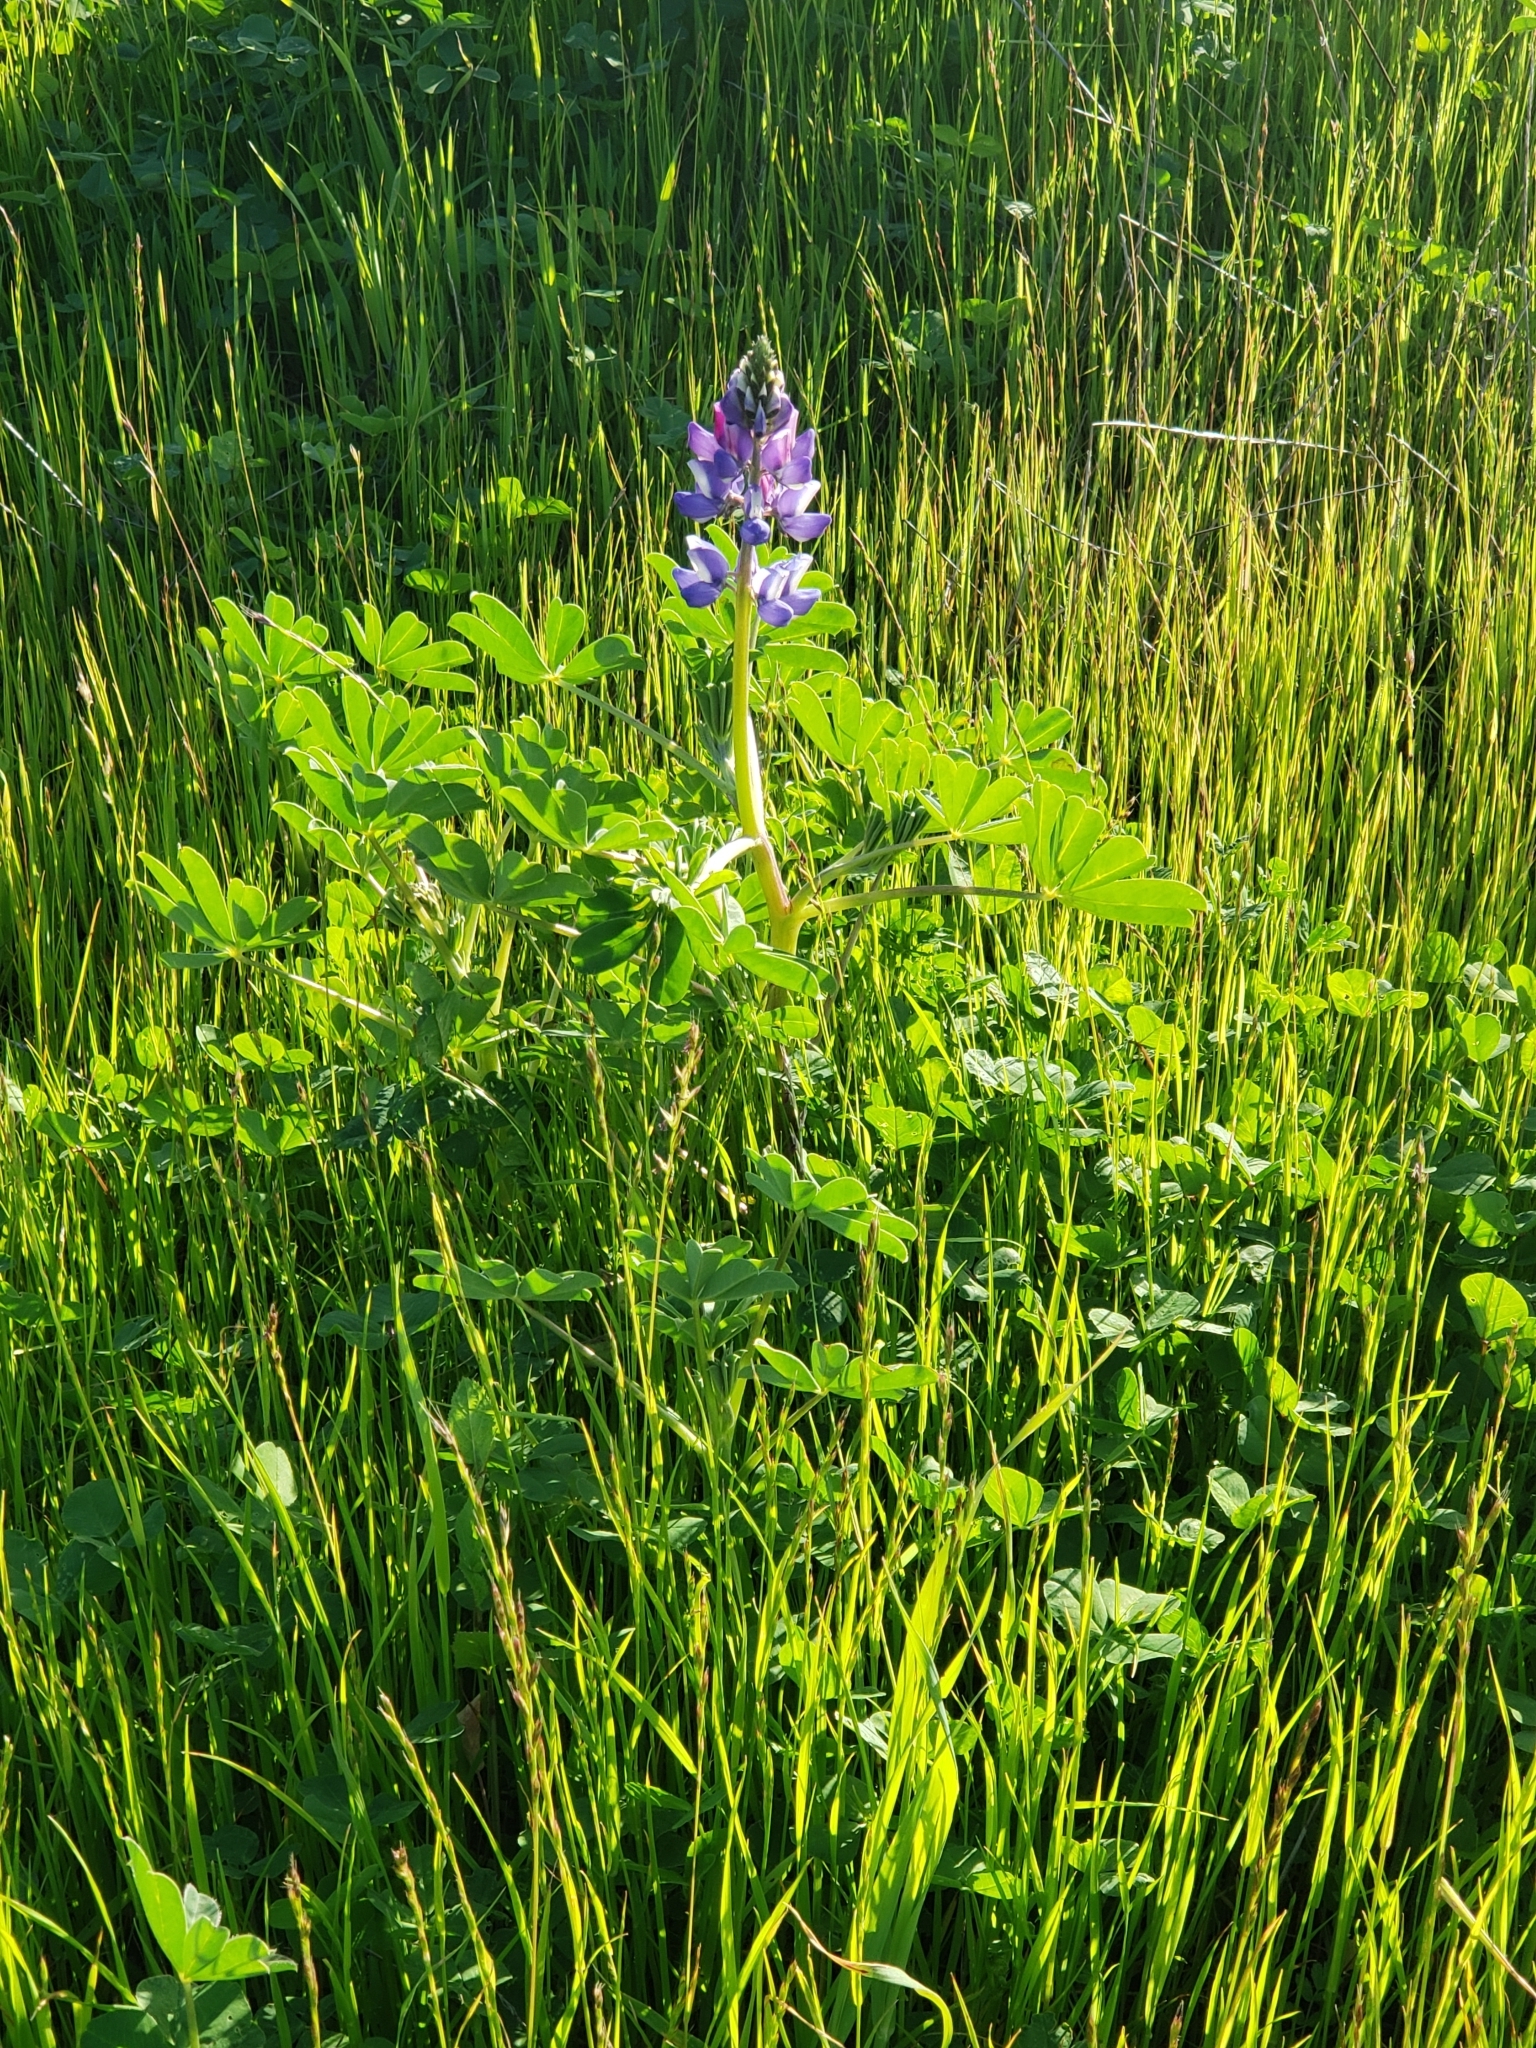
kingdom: Plantae
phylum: Tracheophyta
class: Magnoliopsida
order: Fabales
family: Fabaceae
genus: Lupinus
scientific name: Lupinus succulentus
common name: Arroyo lupine
